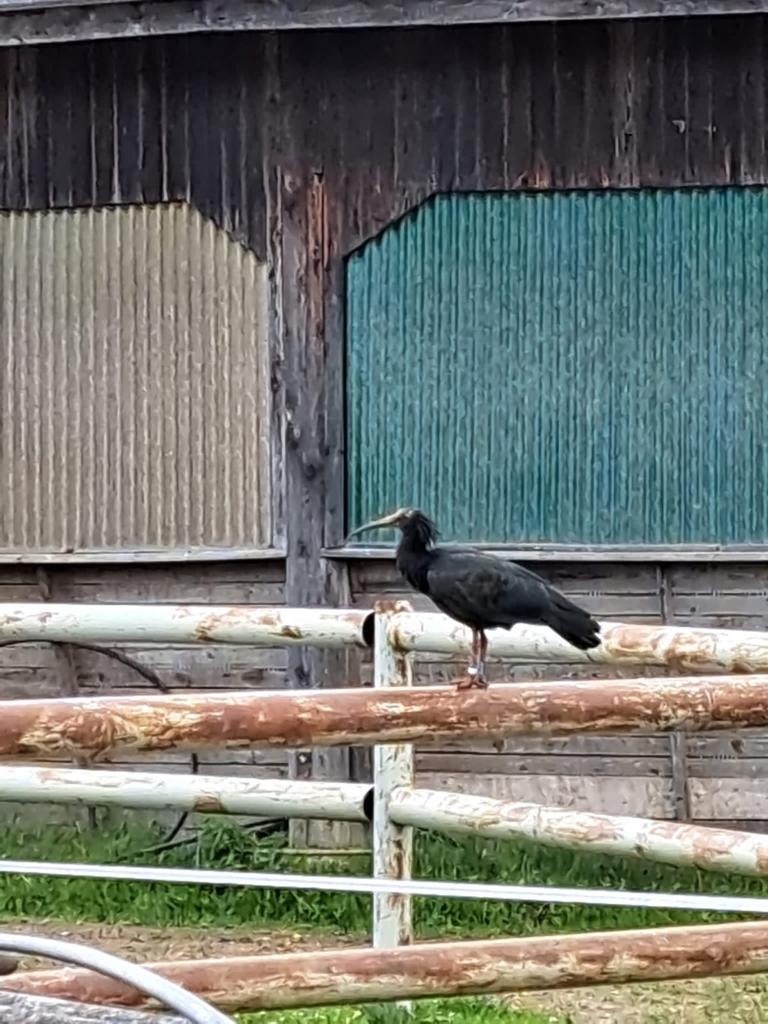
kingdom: Animalia
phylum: Chordata
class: Aves
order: Pelecaniformes
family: Threskiornithidae
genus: Geronticus
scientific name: Geronticus eremita
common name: Northern bald ibis
